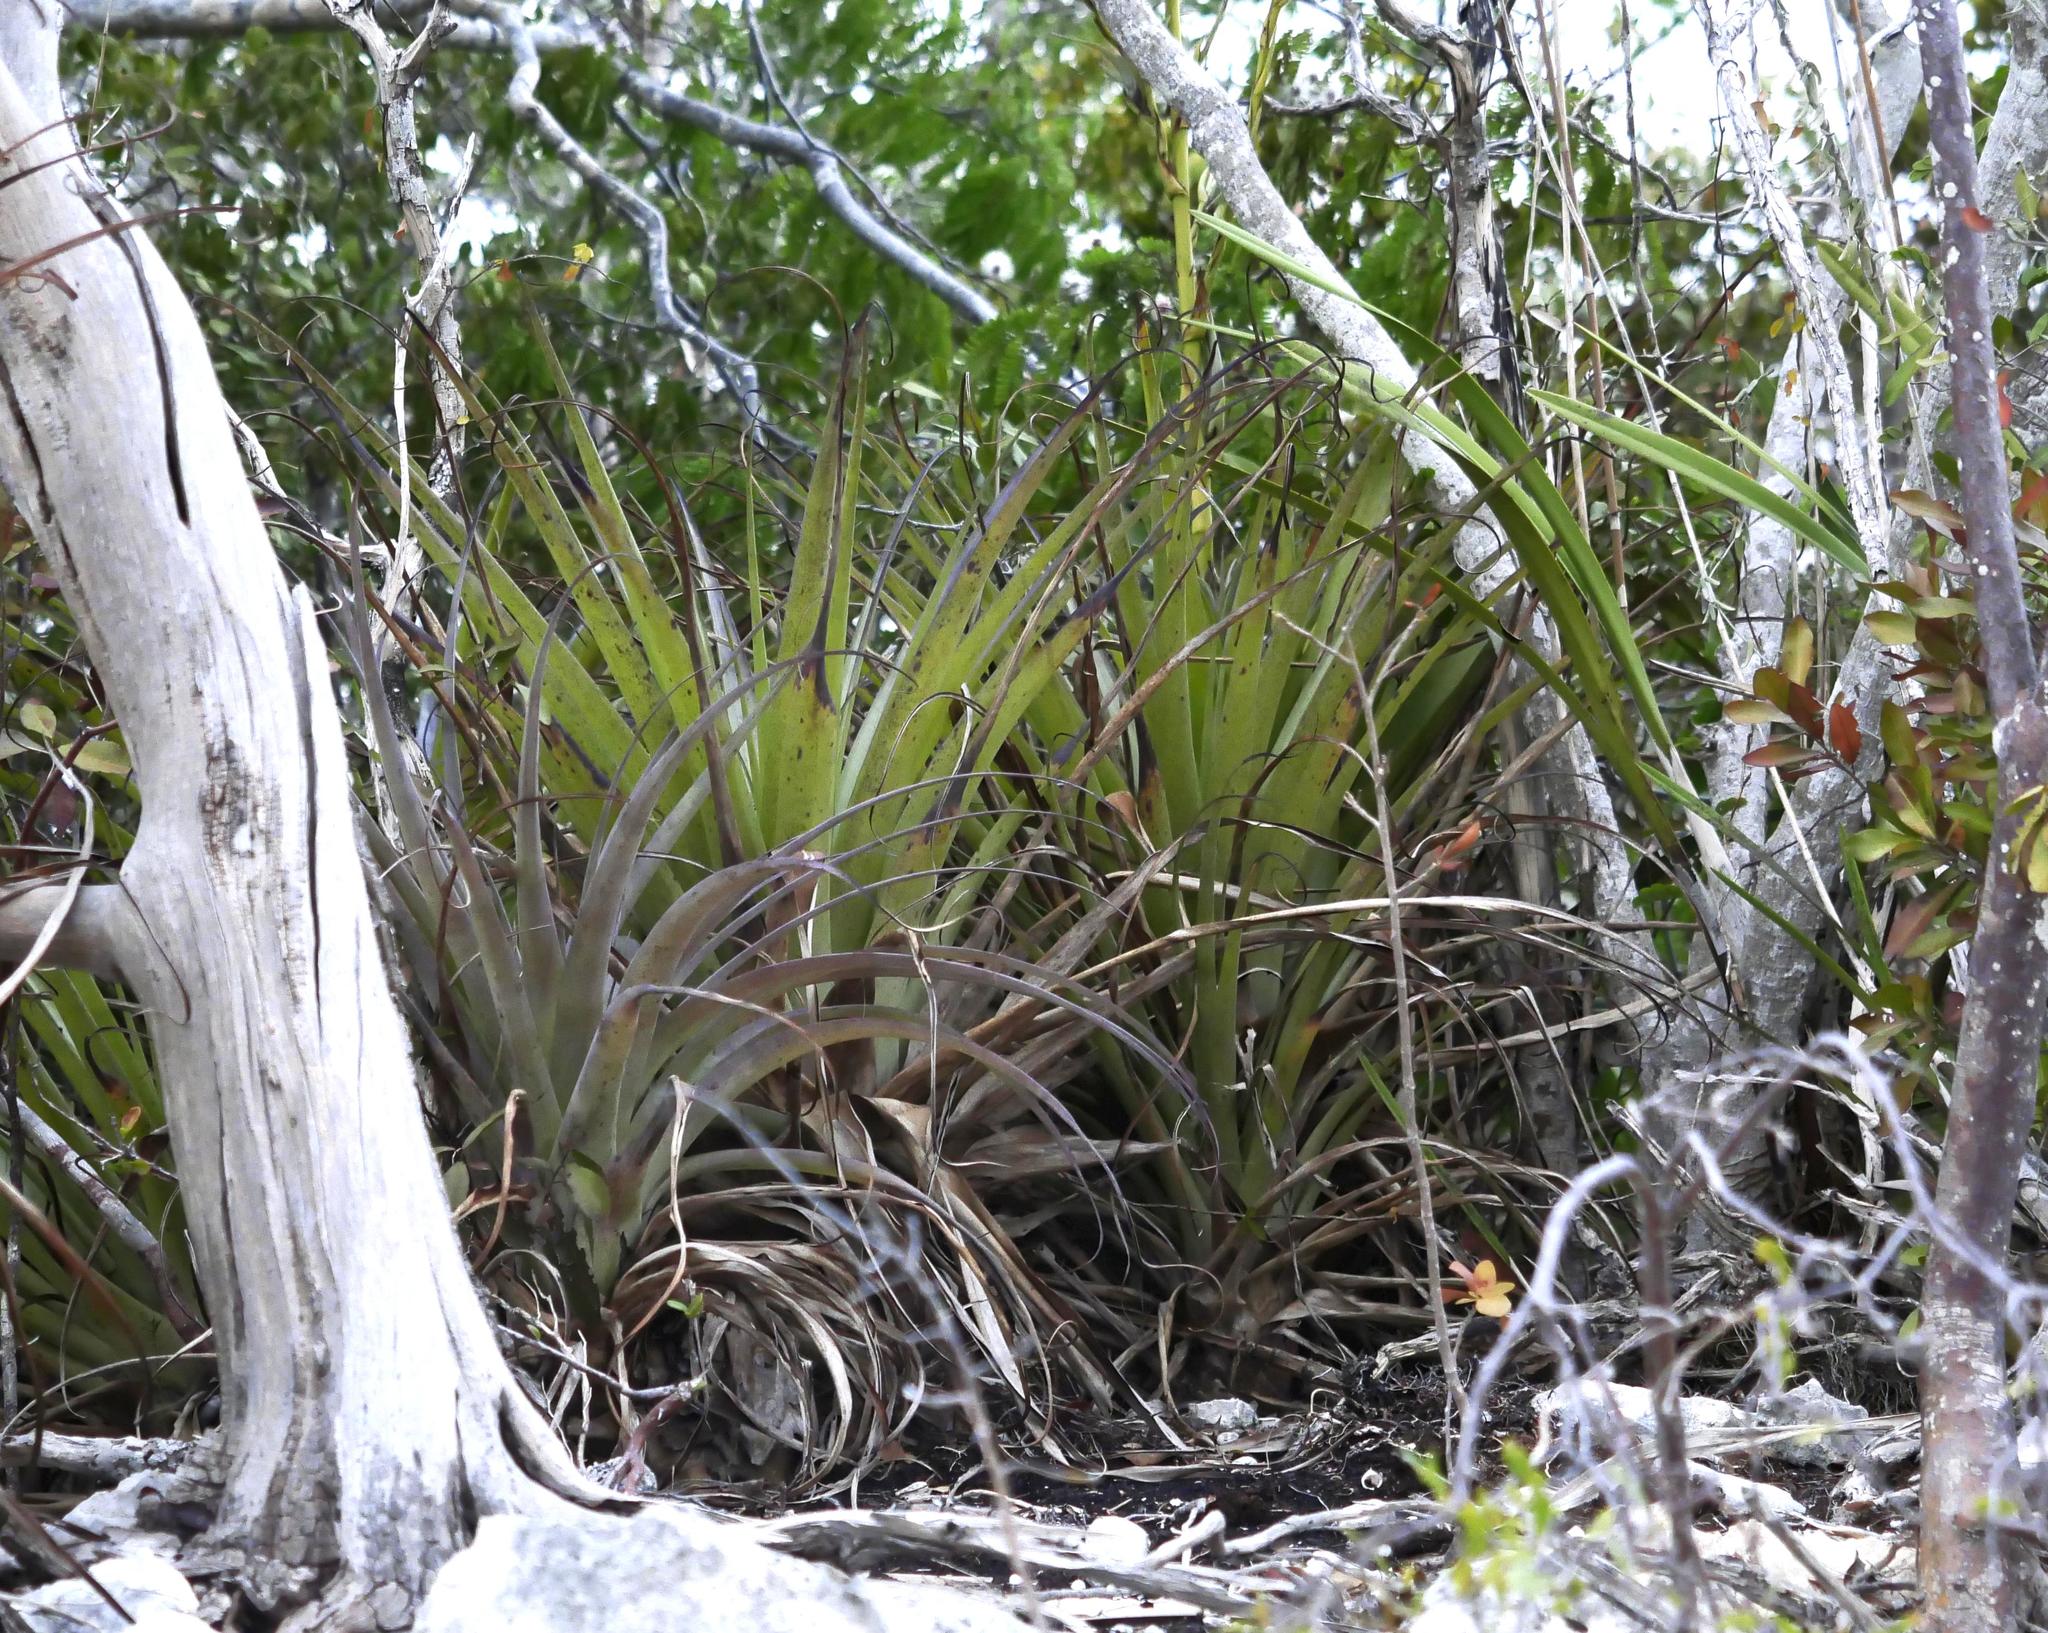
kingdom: Plantae
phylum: Tracheophyta
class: Liliopsida
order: Poales
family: Bromeliaceae
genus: Tillandsia
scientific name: Tillandsia utriculata
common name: Wild pine
